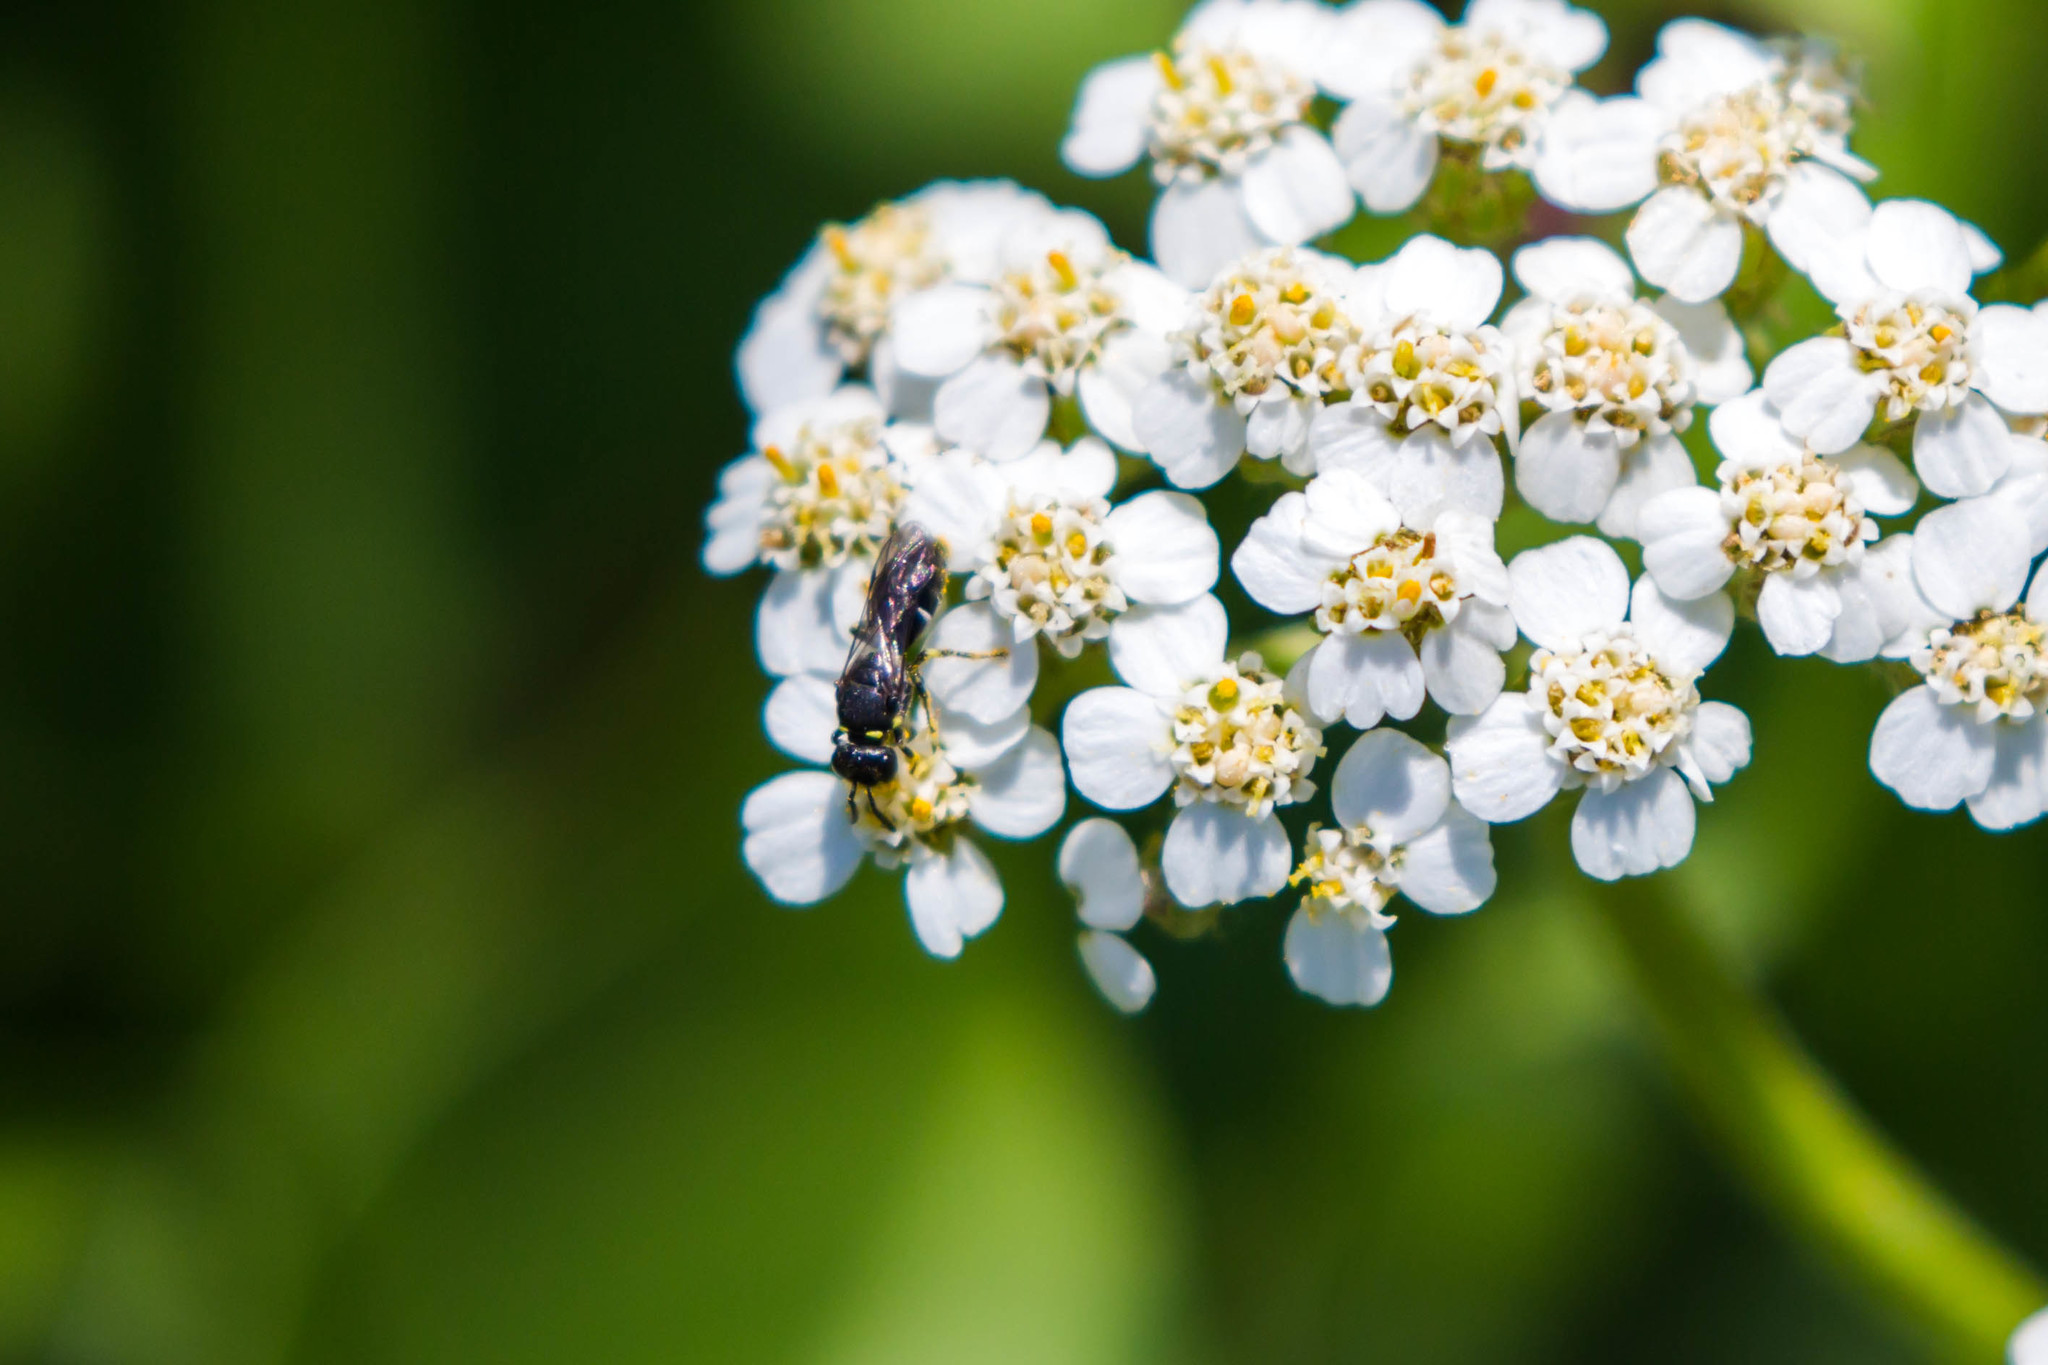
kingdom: Animalia
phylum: Arthropoda
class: Insecta
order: Hymenoptera
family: Colletidae
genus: Hylaeus
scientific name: Hylaeus modestus
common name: Yellow-faced bee
